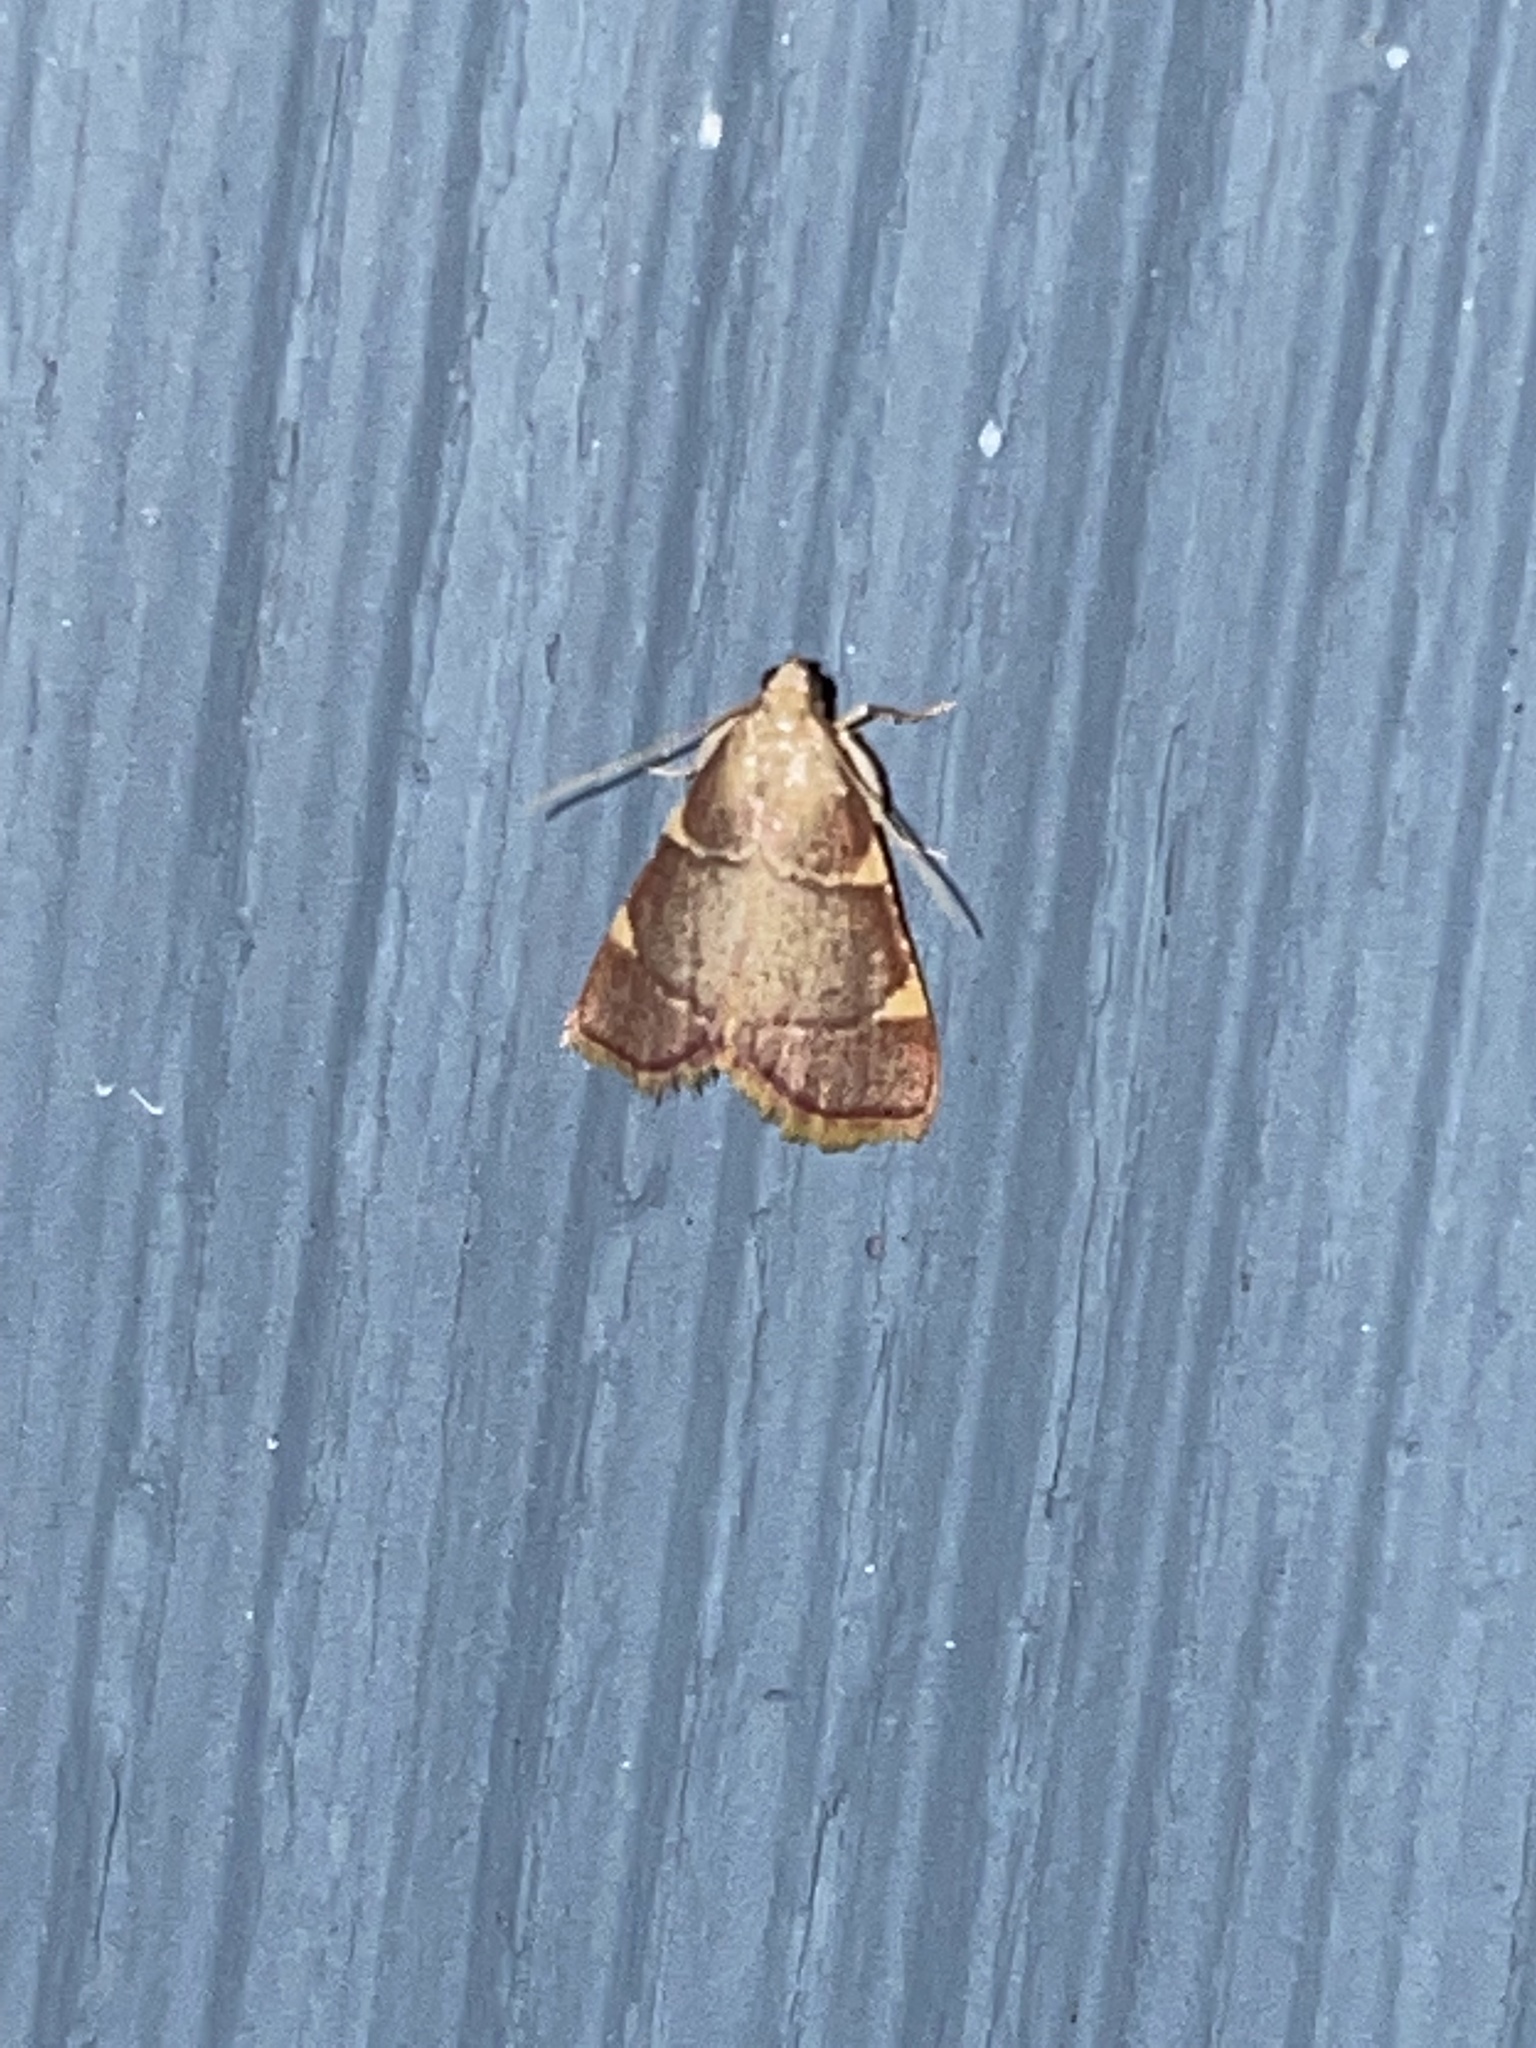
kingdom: Animalia
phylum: Arthropoda
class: Insecta
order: Lepidoptera
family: Pyralidae
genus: Hypsopygia
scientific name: Hypsopygia olinalis
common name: Yellow-fringed dolichomia moth
